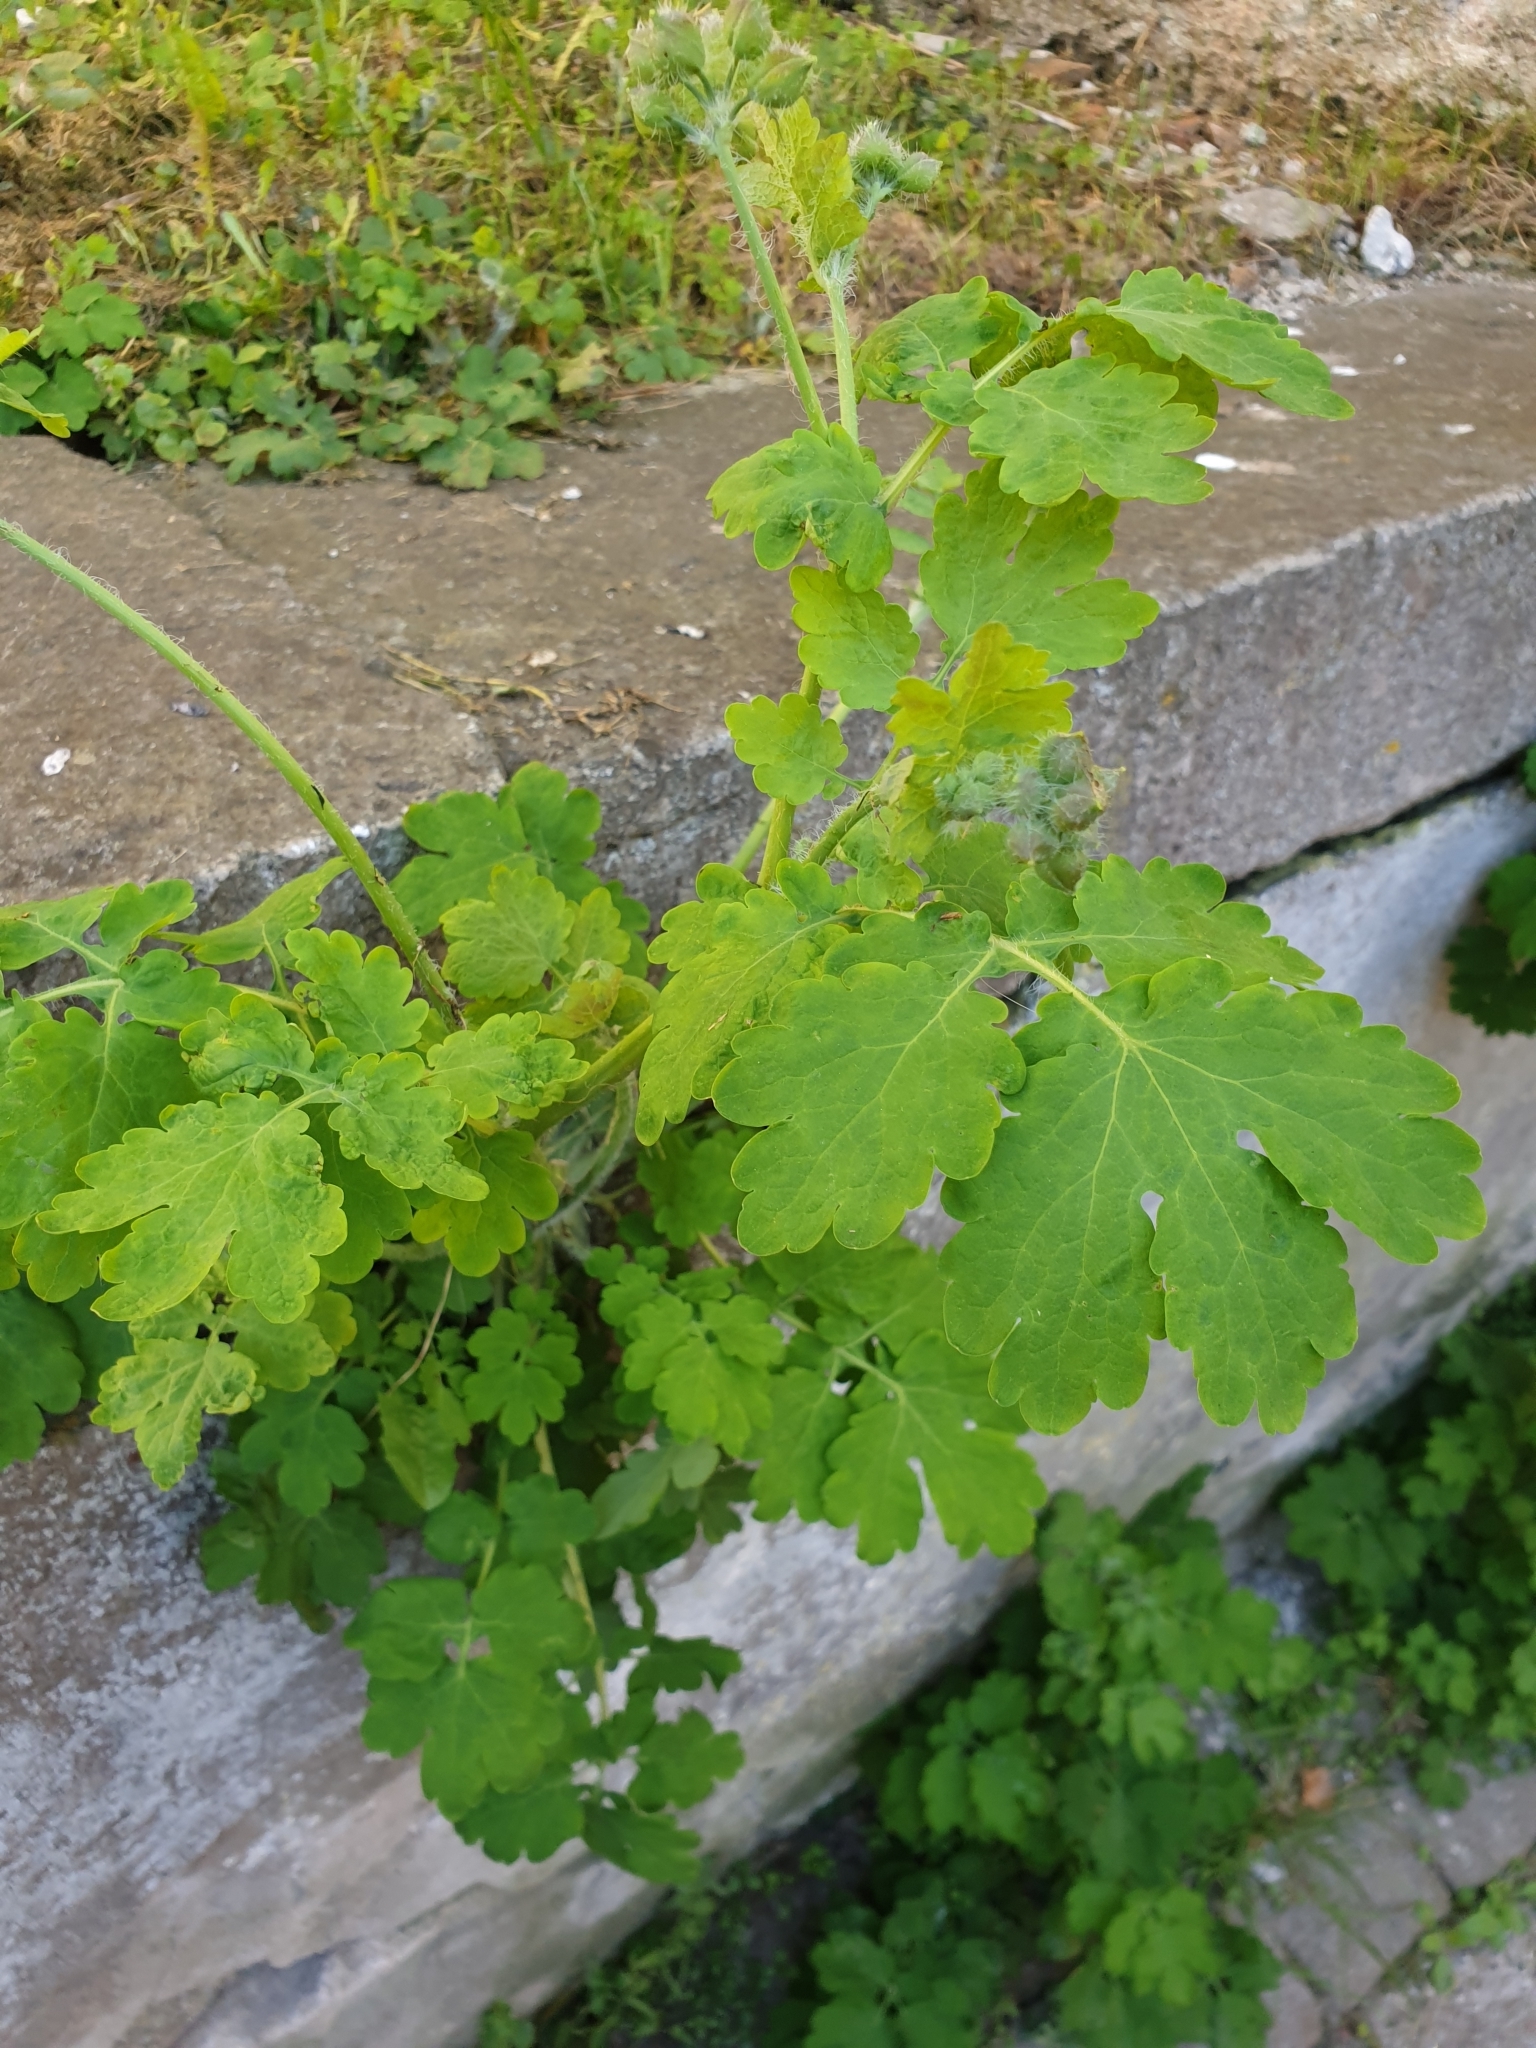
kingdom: Plantae
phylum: Tracheophyta
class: Magnoliopsida
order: Ranunculales
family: Papaveraceae
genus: Chelidonium
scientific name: Chelidonium majus
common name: Greater celandine
